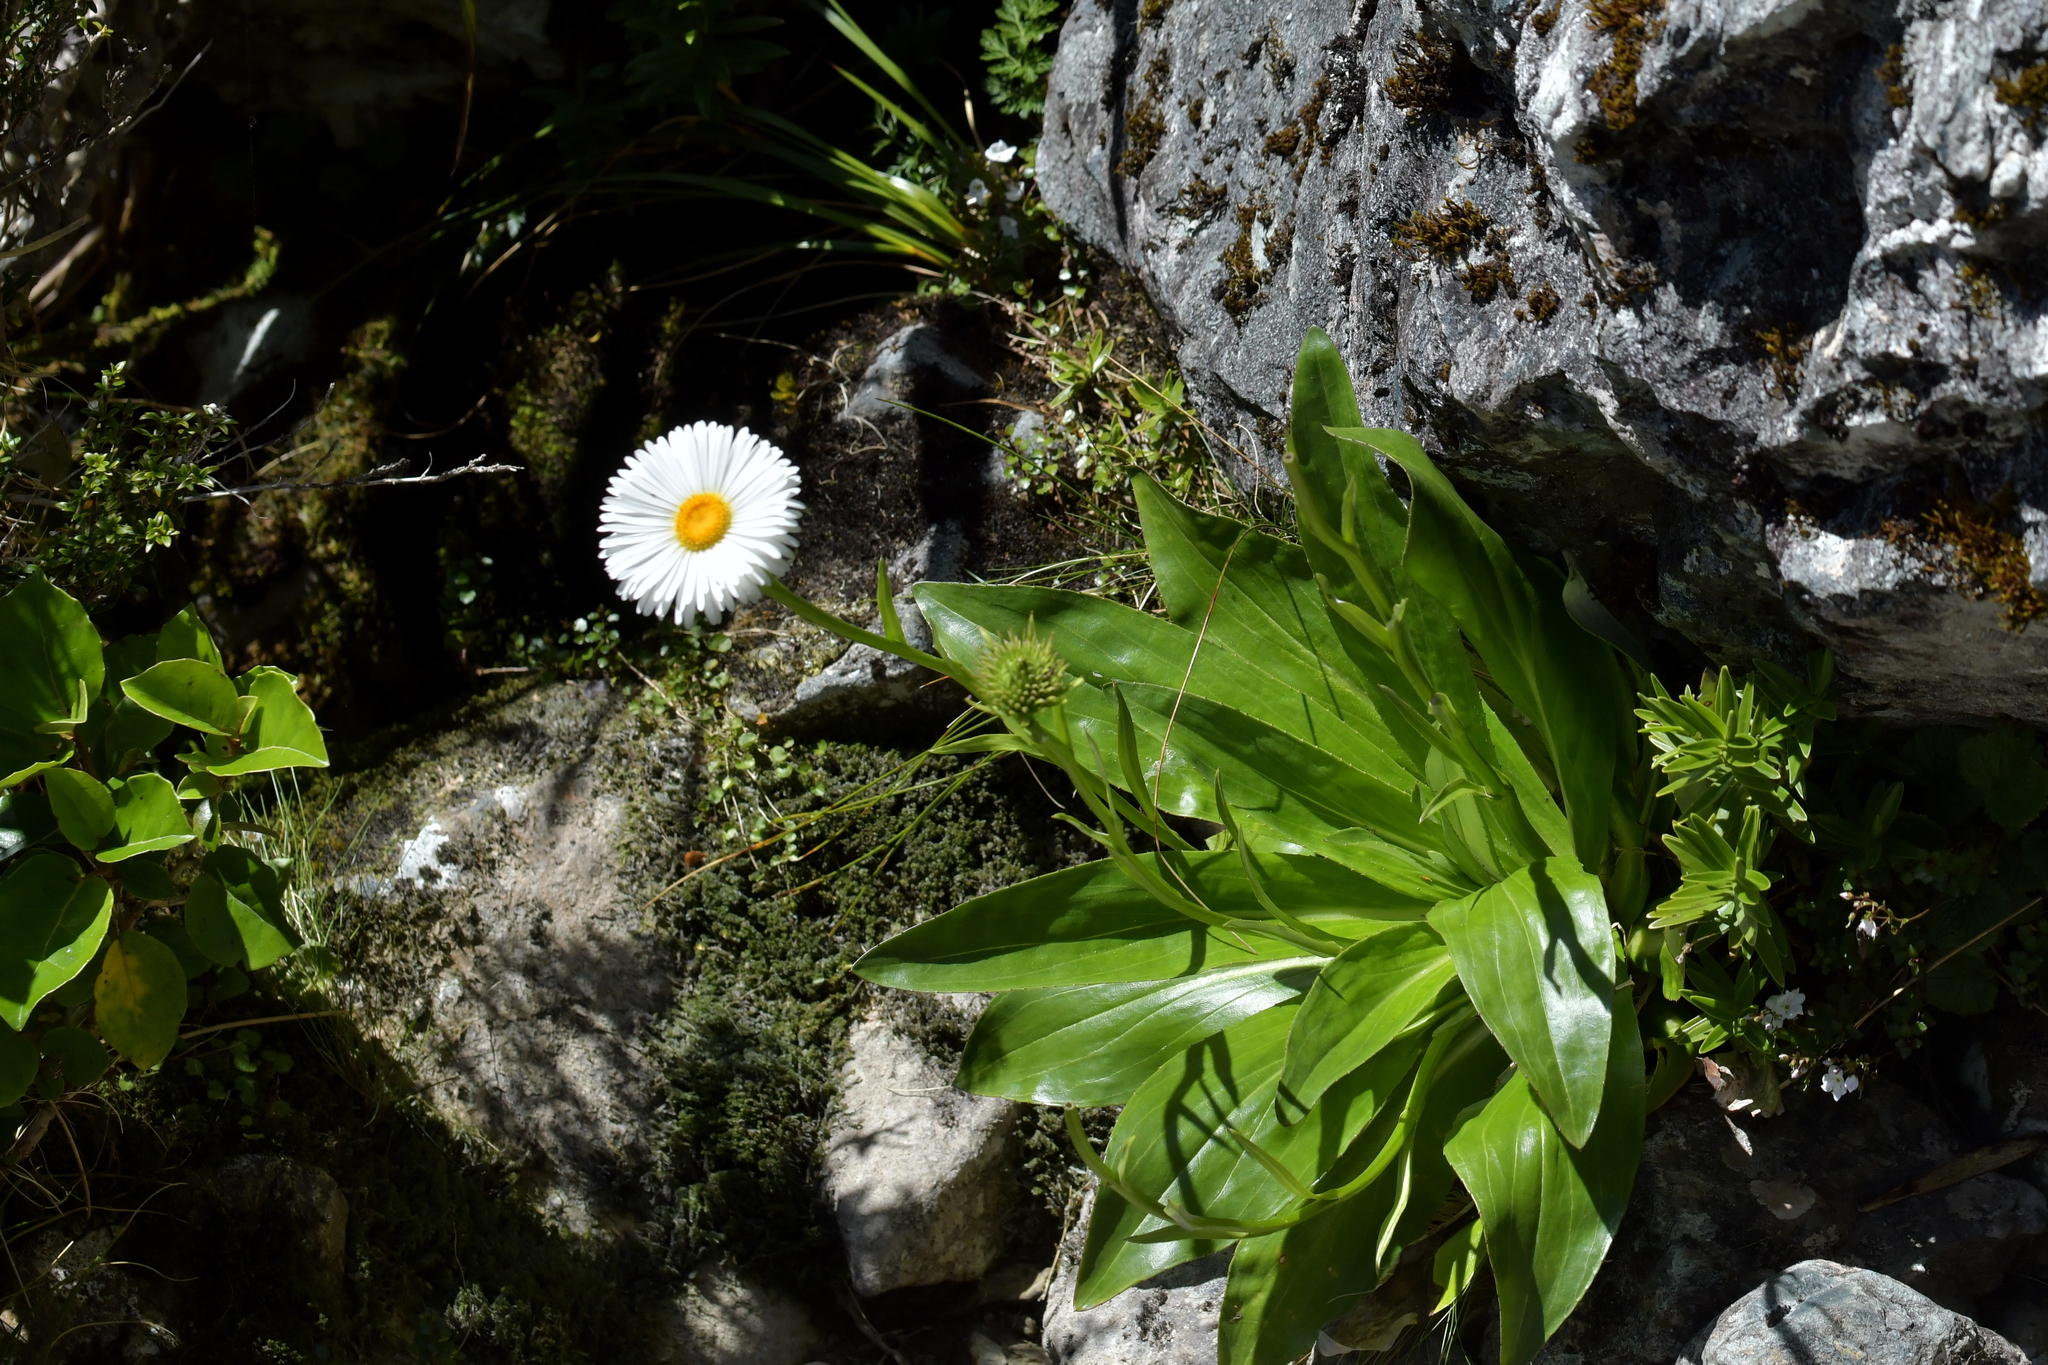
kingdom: Plantae
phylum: Tracheophyta
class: Magnoliopsida
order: Asterales
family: Asteraceae
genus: Celmisia
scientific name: Celmisia holosericea
